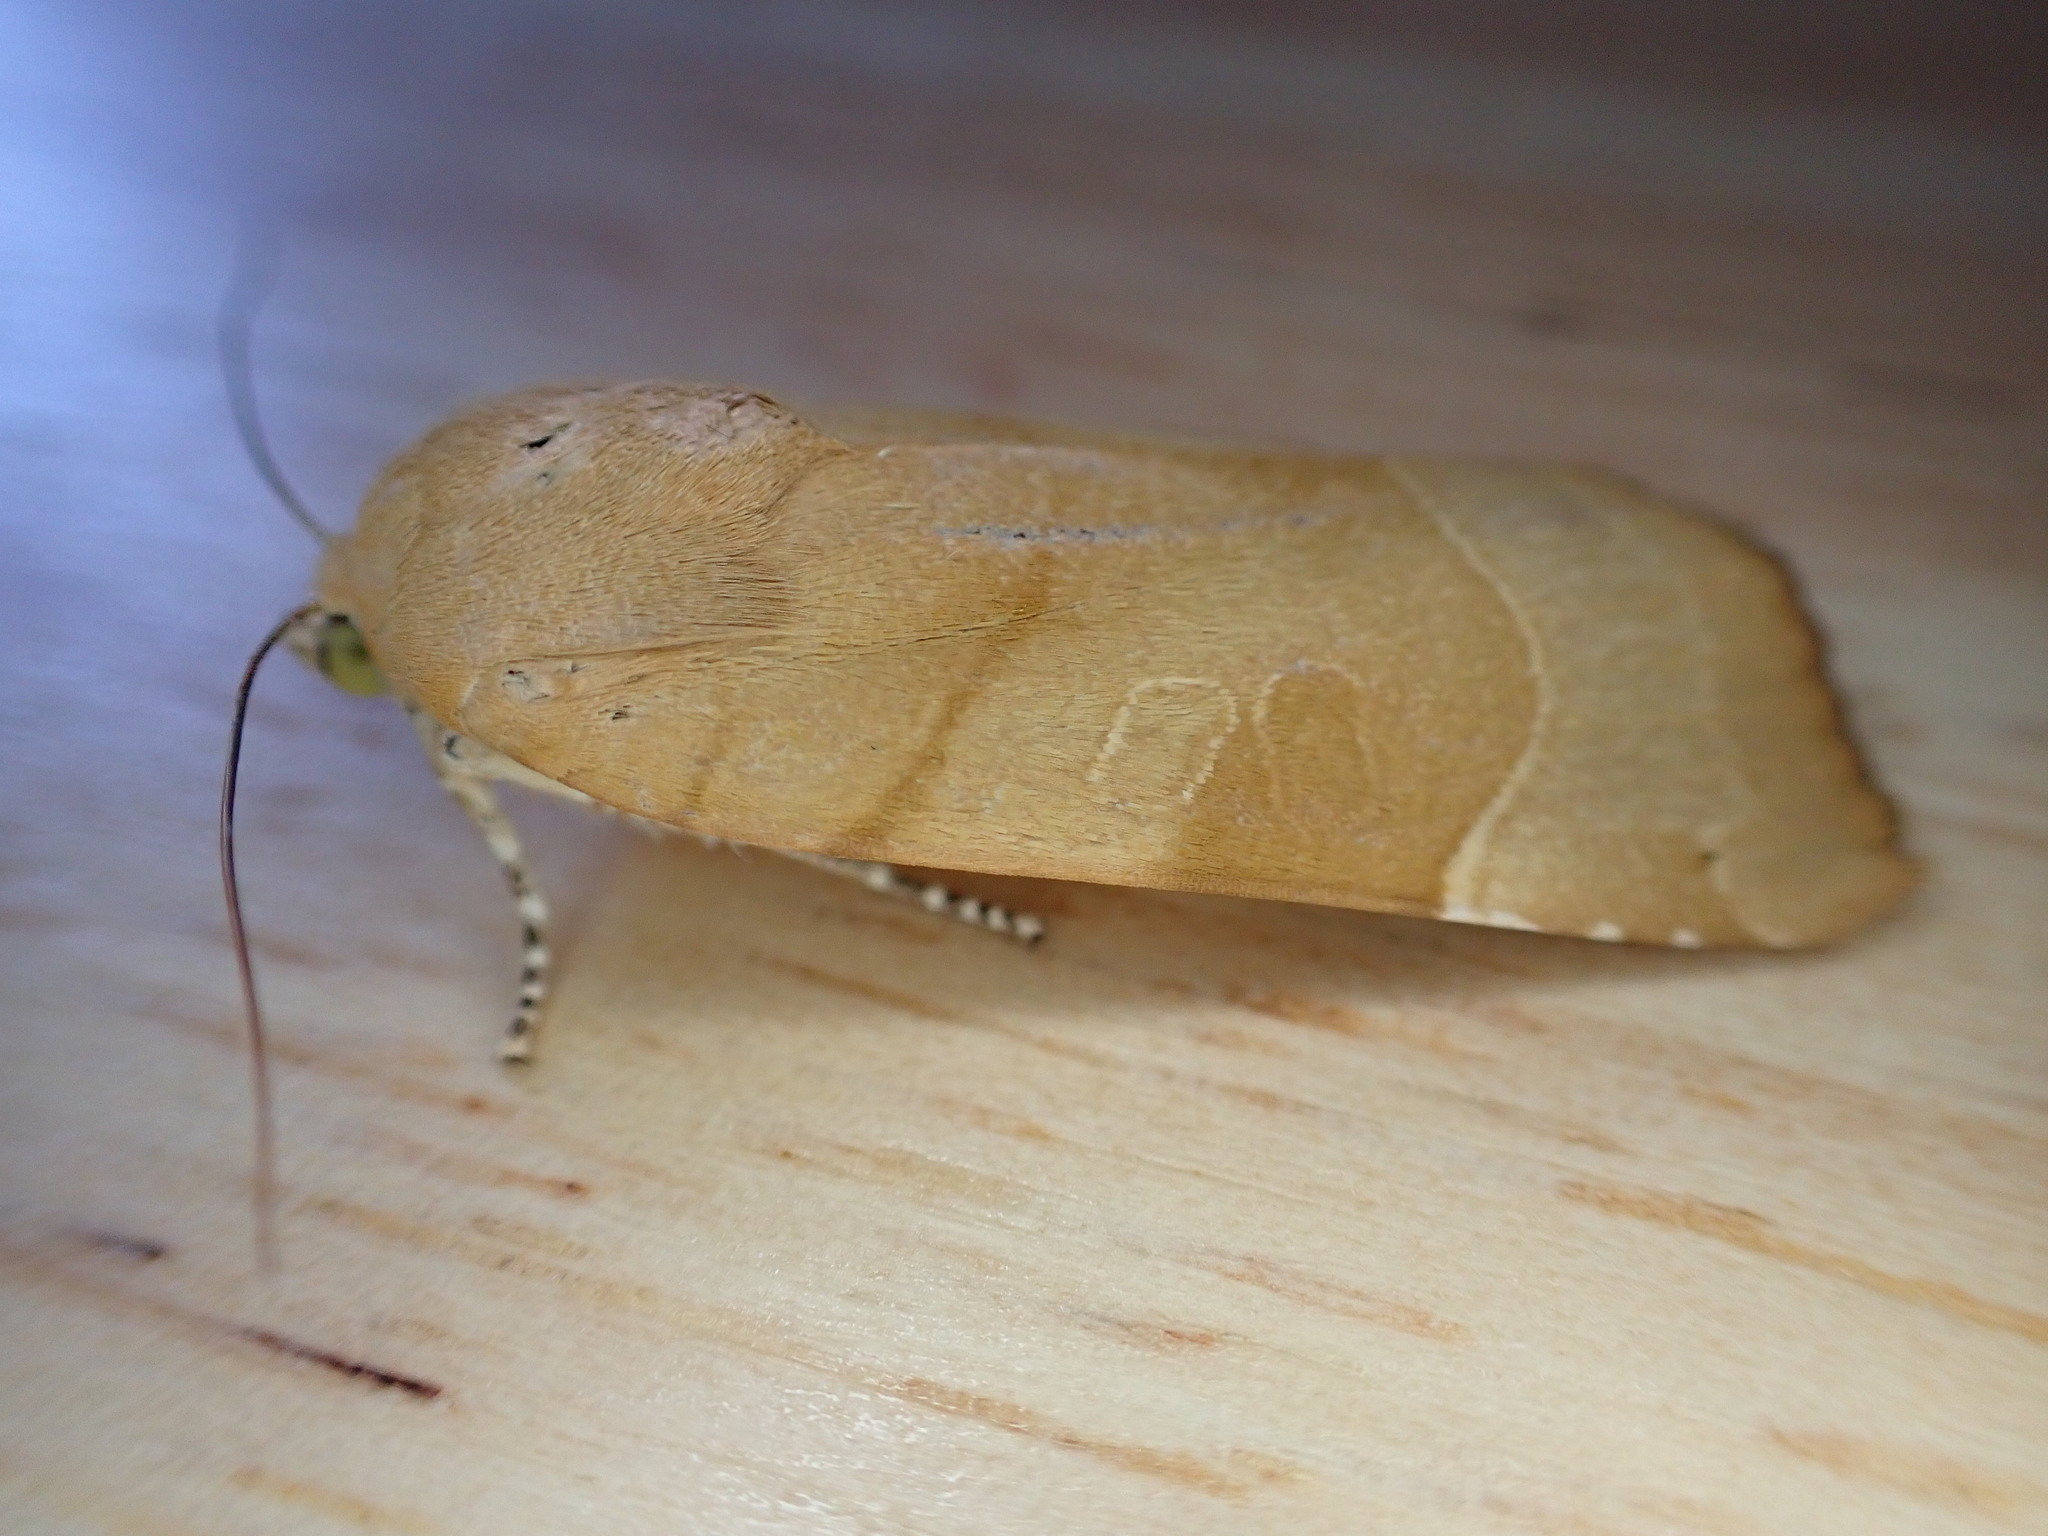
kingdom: Animalia
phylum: Arthropoda
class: Insecta
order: Lepidoptera
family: Noctuidae
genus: Noctua
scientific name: Noctua fimbriata
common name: Broad-bordered yellow underwing
